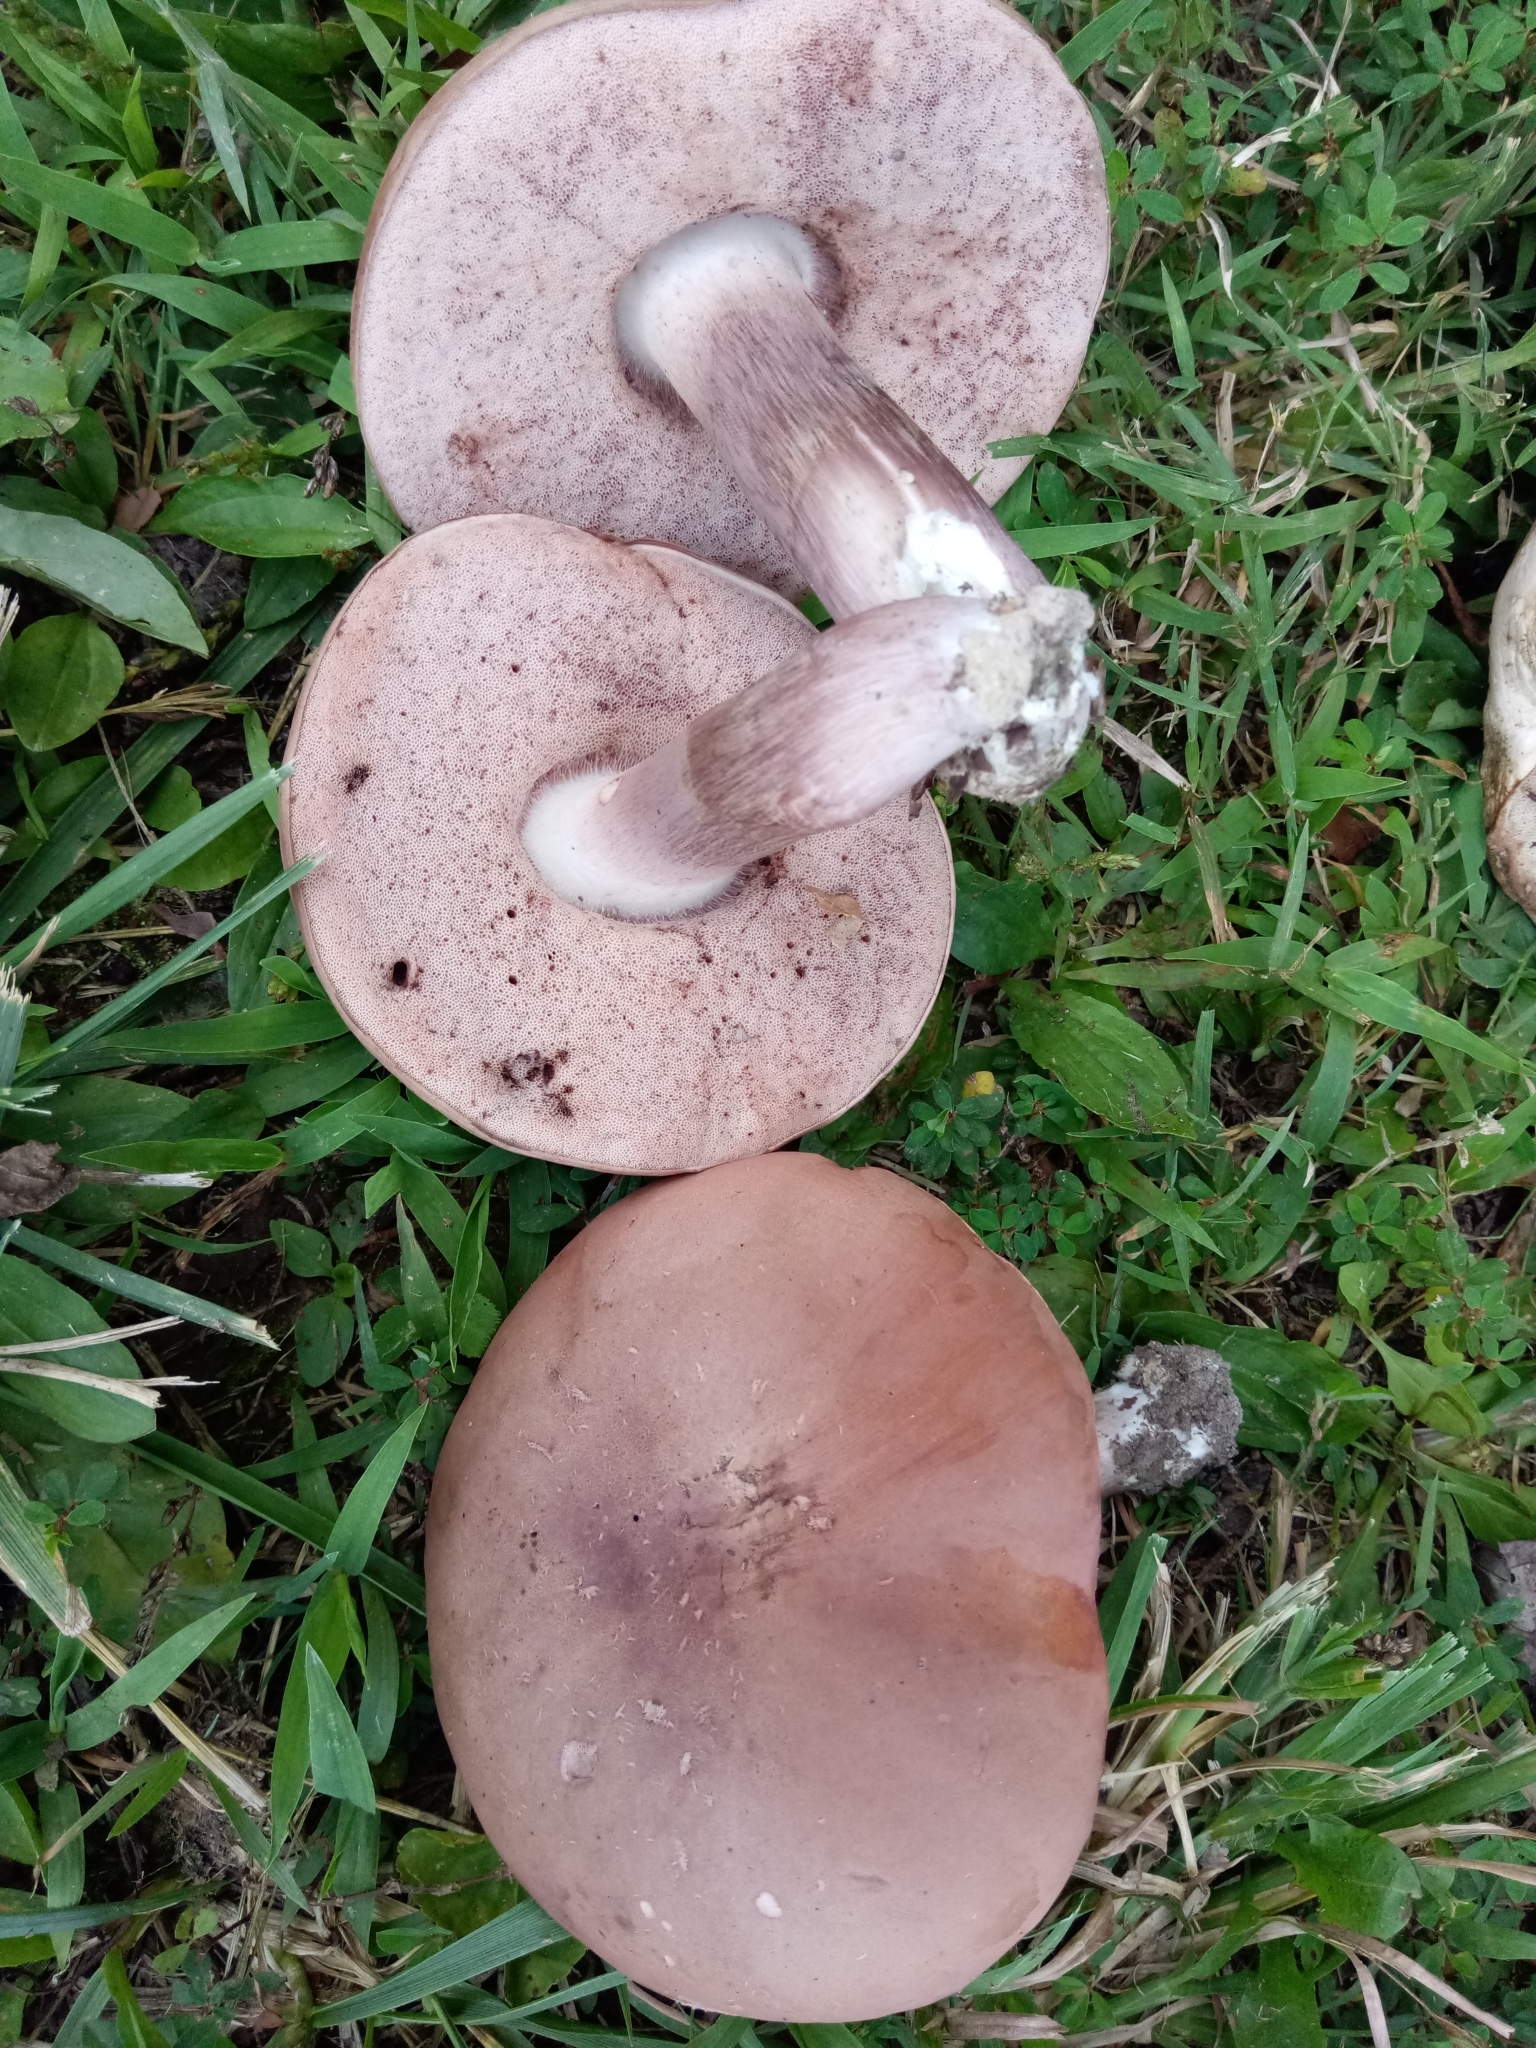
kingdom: Fungi
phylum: Basidiomycota
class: Agaricomycetes
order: Boletales
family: Boletaceae
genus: Tylopilus
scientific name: Tylopilus violatinctus
